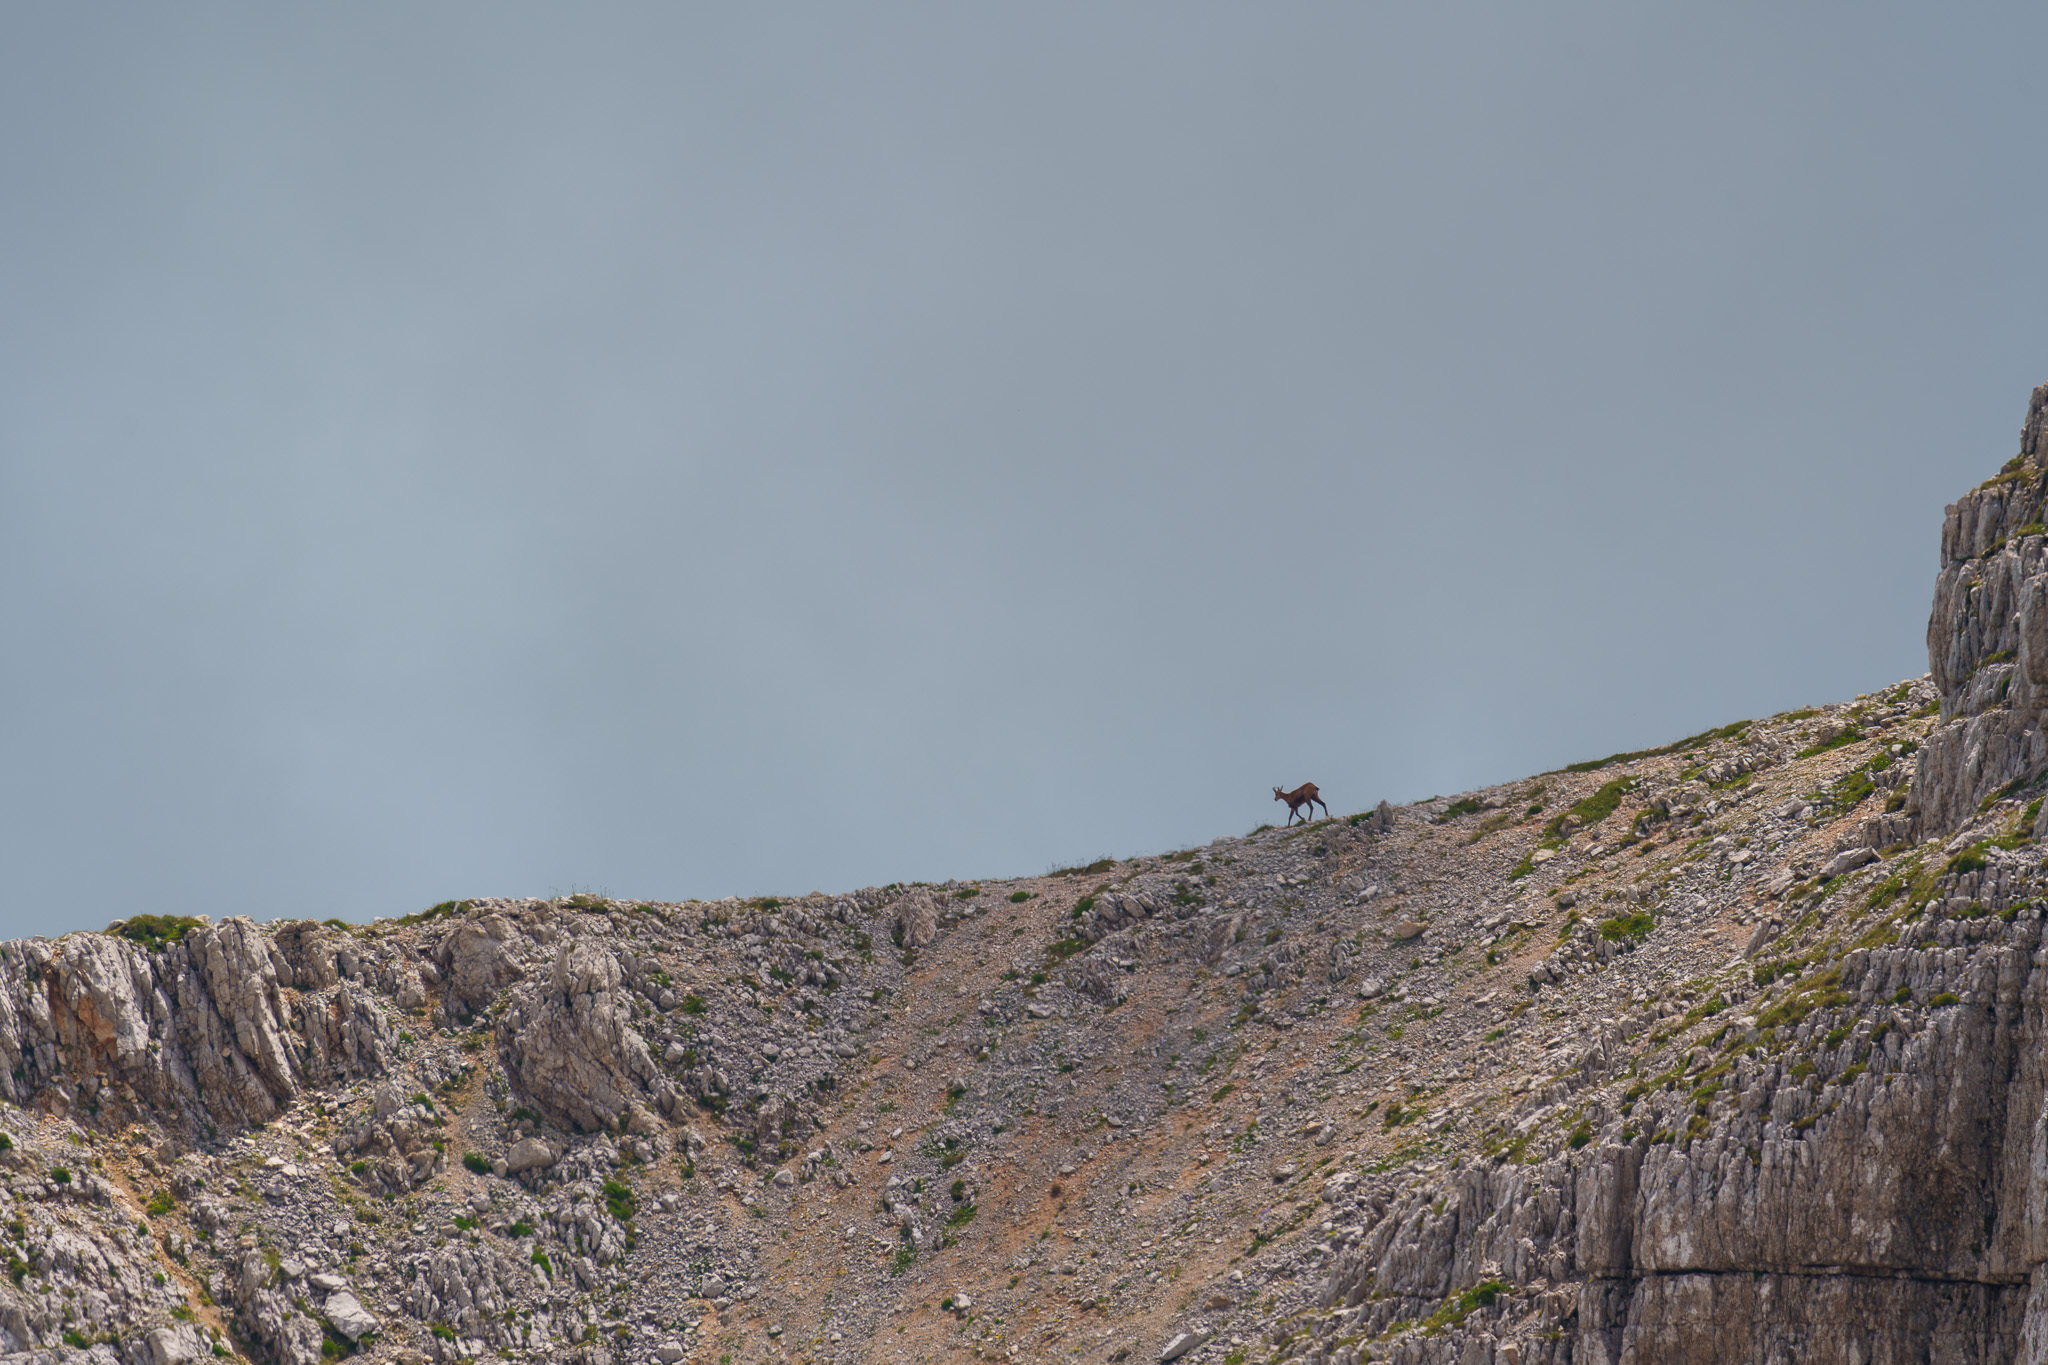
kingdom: Animalia
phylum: Chordata
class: Mammalia
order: Artiodactyla
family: Bovidae
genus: Rupicapra
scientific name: Rupicapra rupicapra
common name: Chamois
